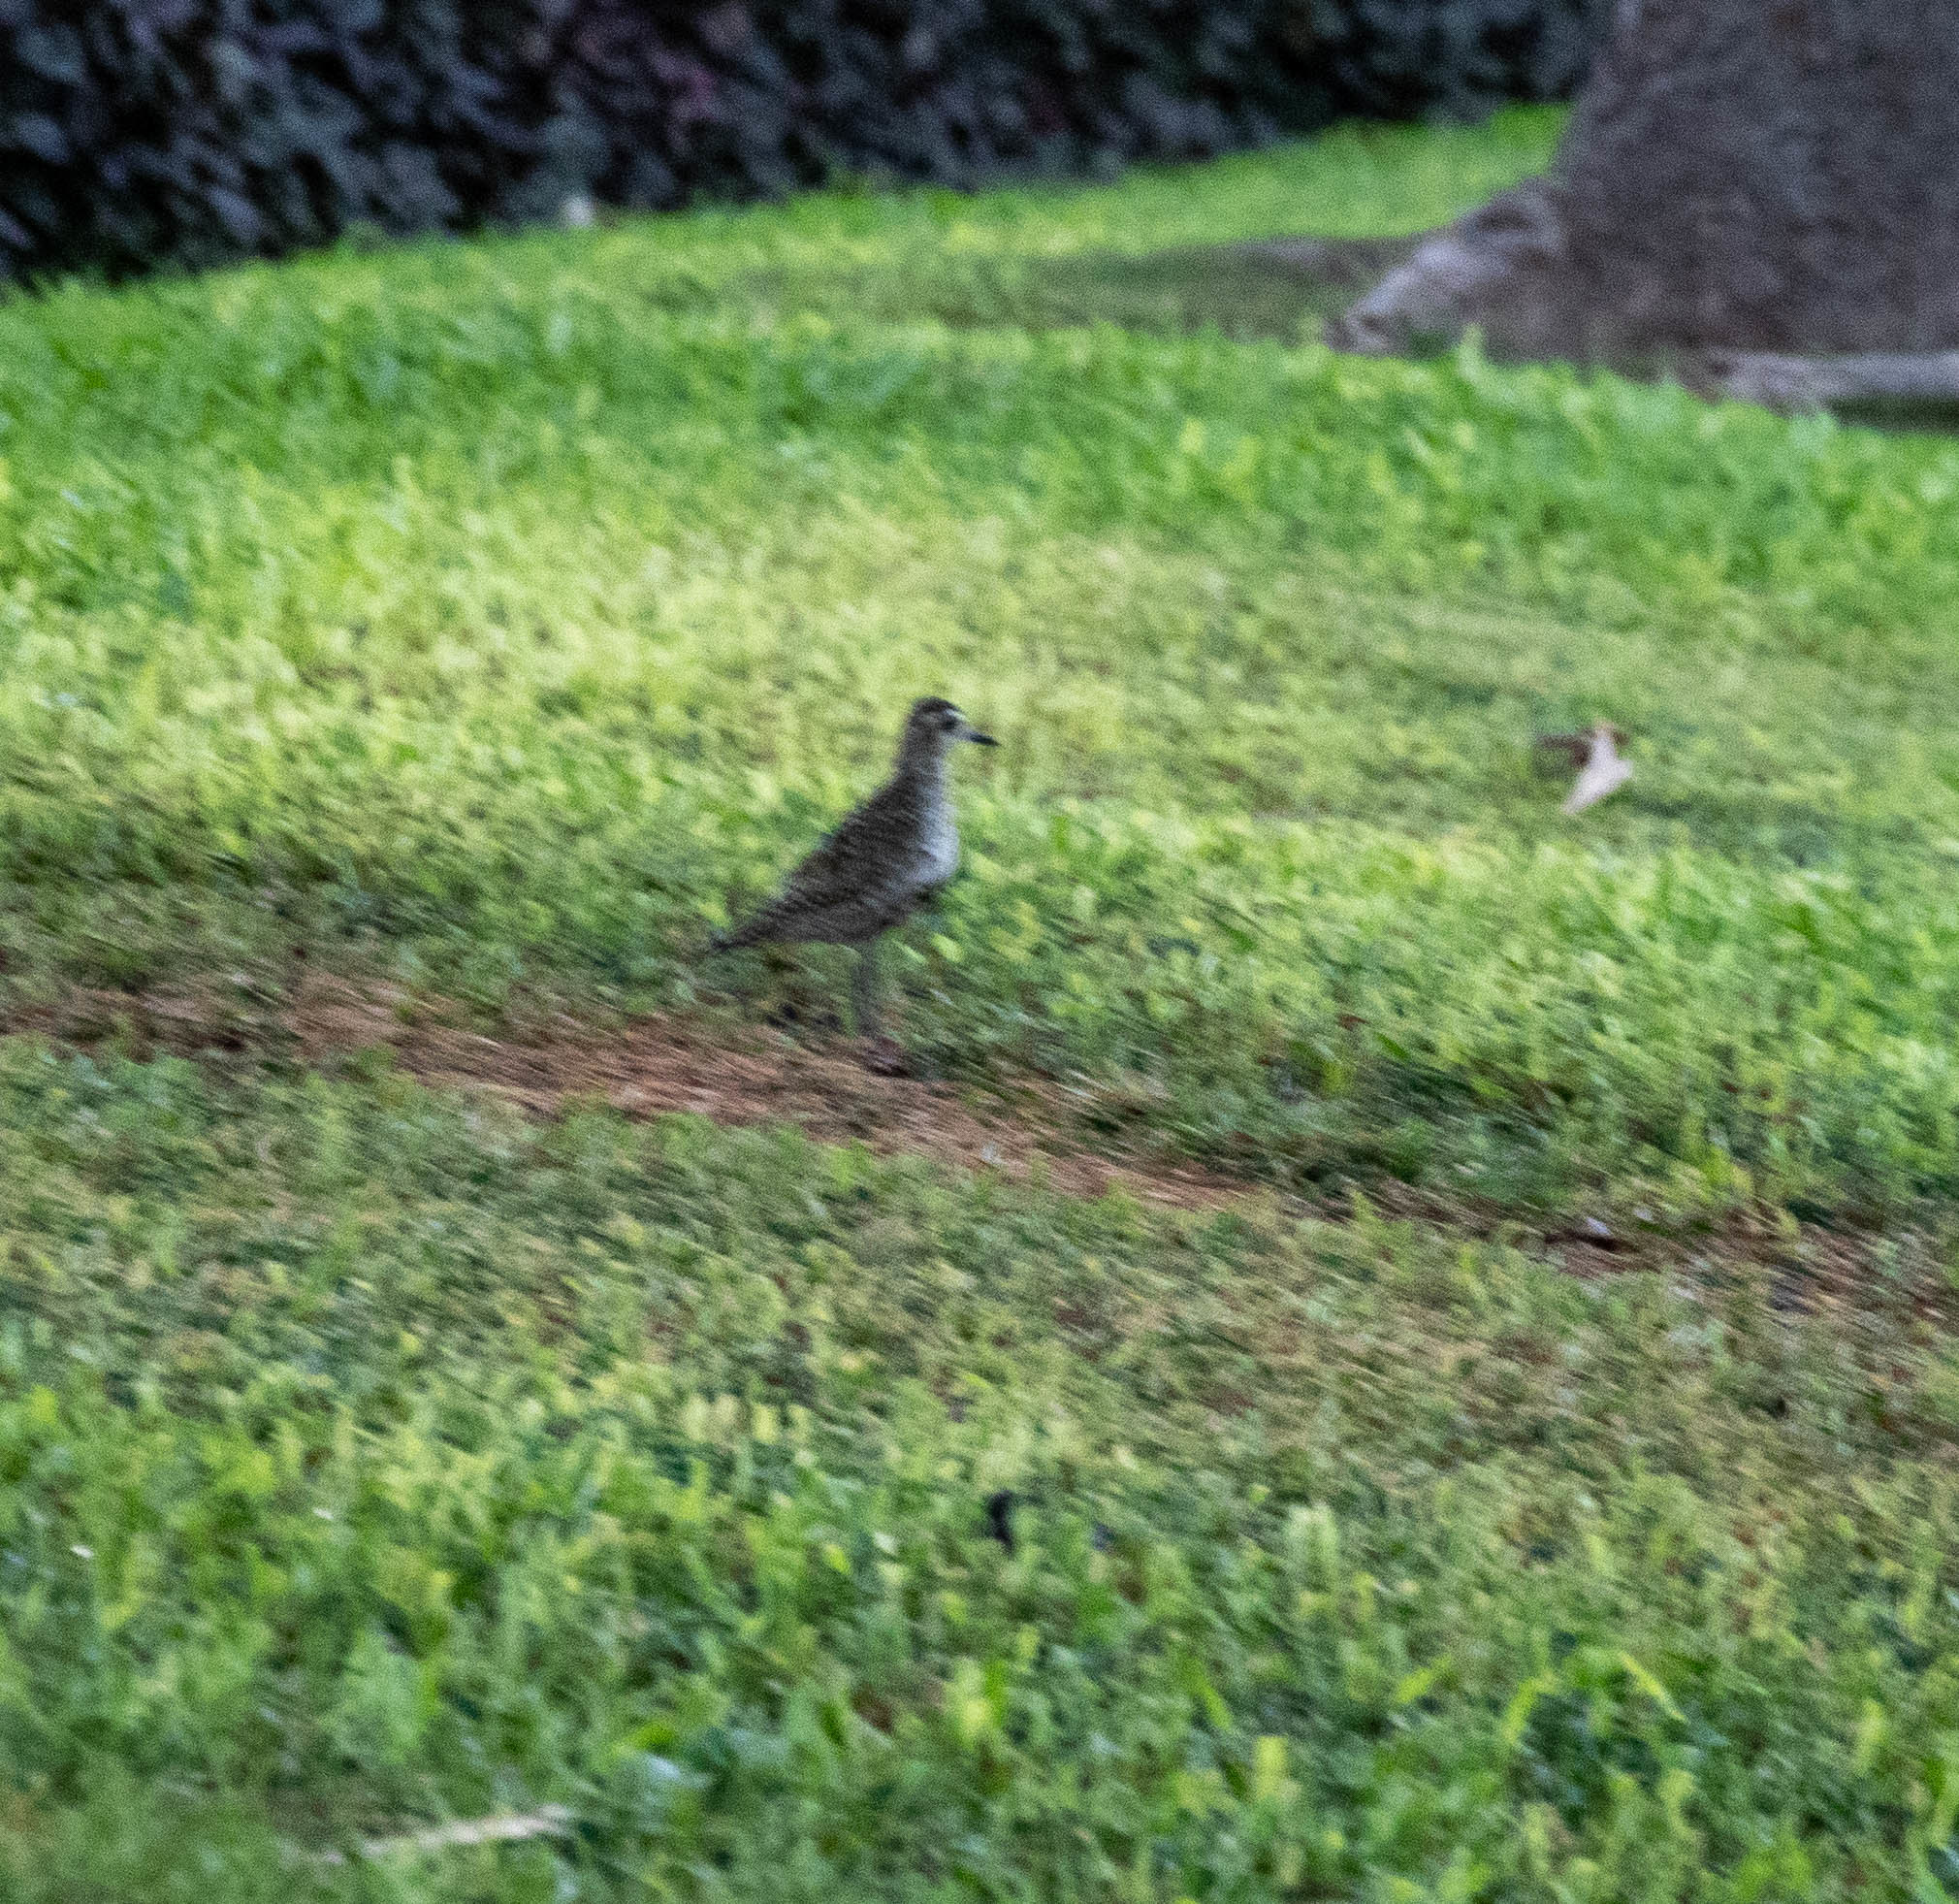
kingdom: Animalia
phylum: Chordata
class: Aves
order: Charadriiformes
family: Charadriidae
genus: Pluvialis
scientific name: Pluvialis fulva
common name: Pacific golden plover
